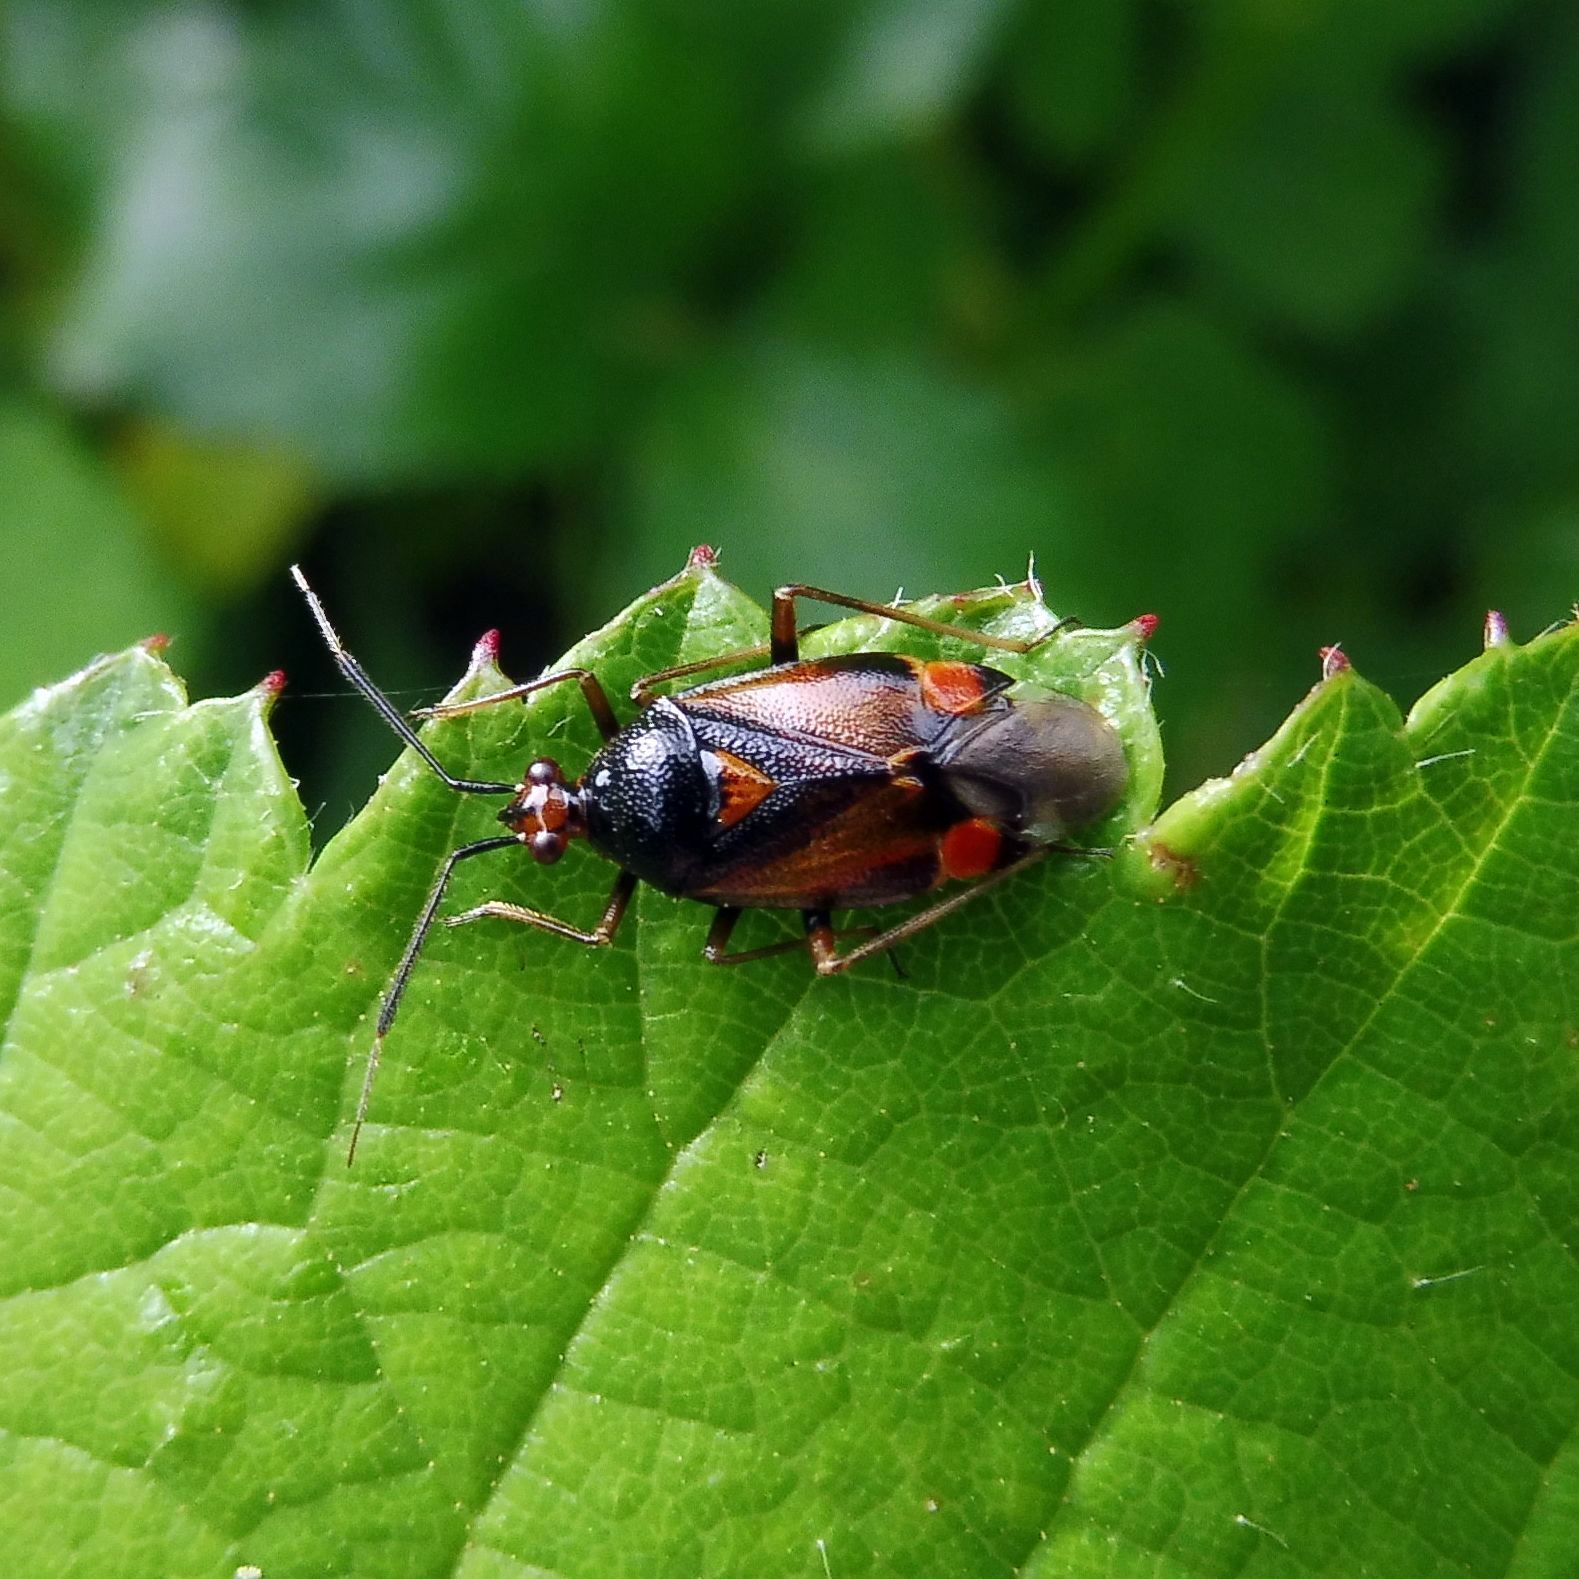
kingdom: Animalia
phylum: Arthropoda
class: Insecta
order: Hemiptera
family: Miridae
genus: Deraeocoris
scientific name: Deraeocoris ruber
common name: Plant bug
